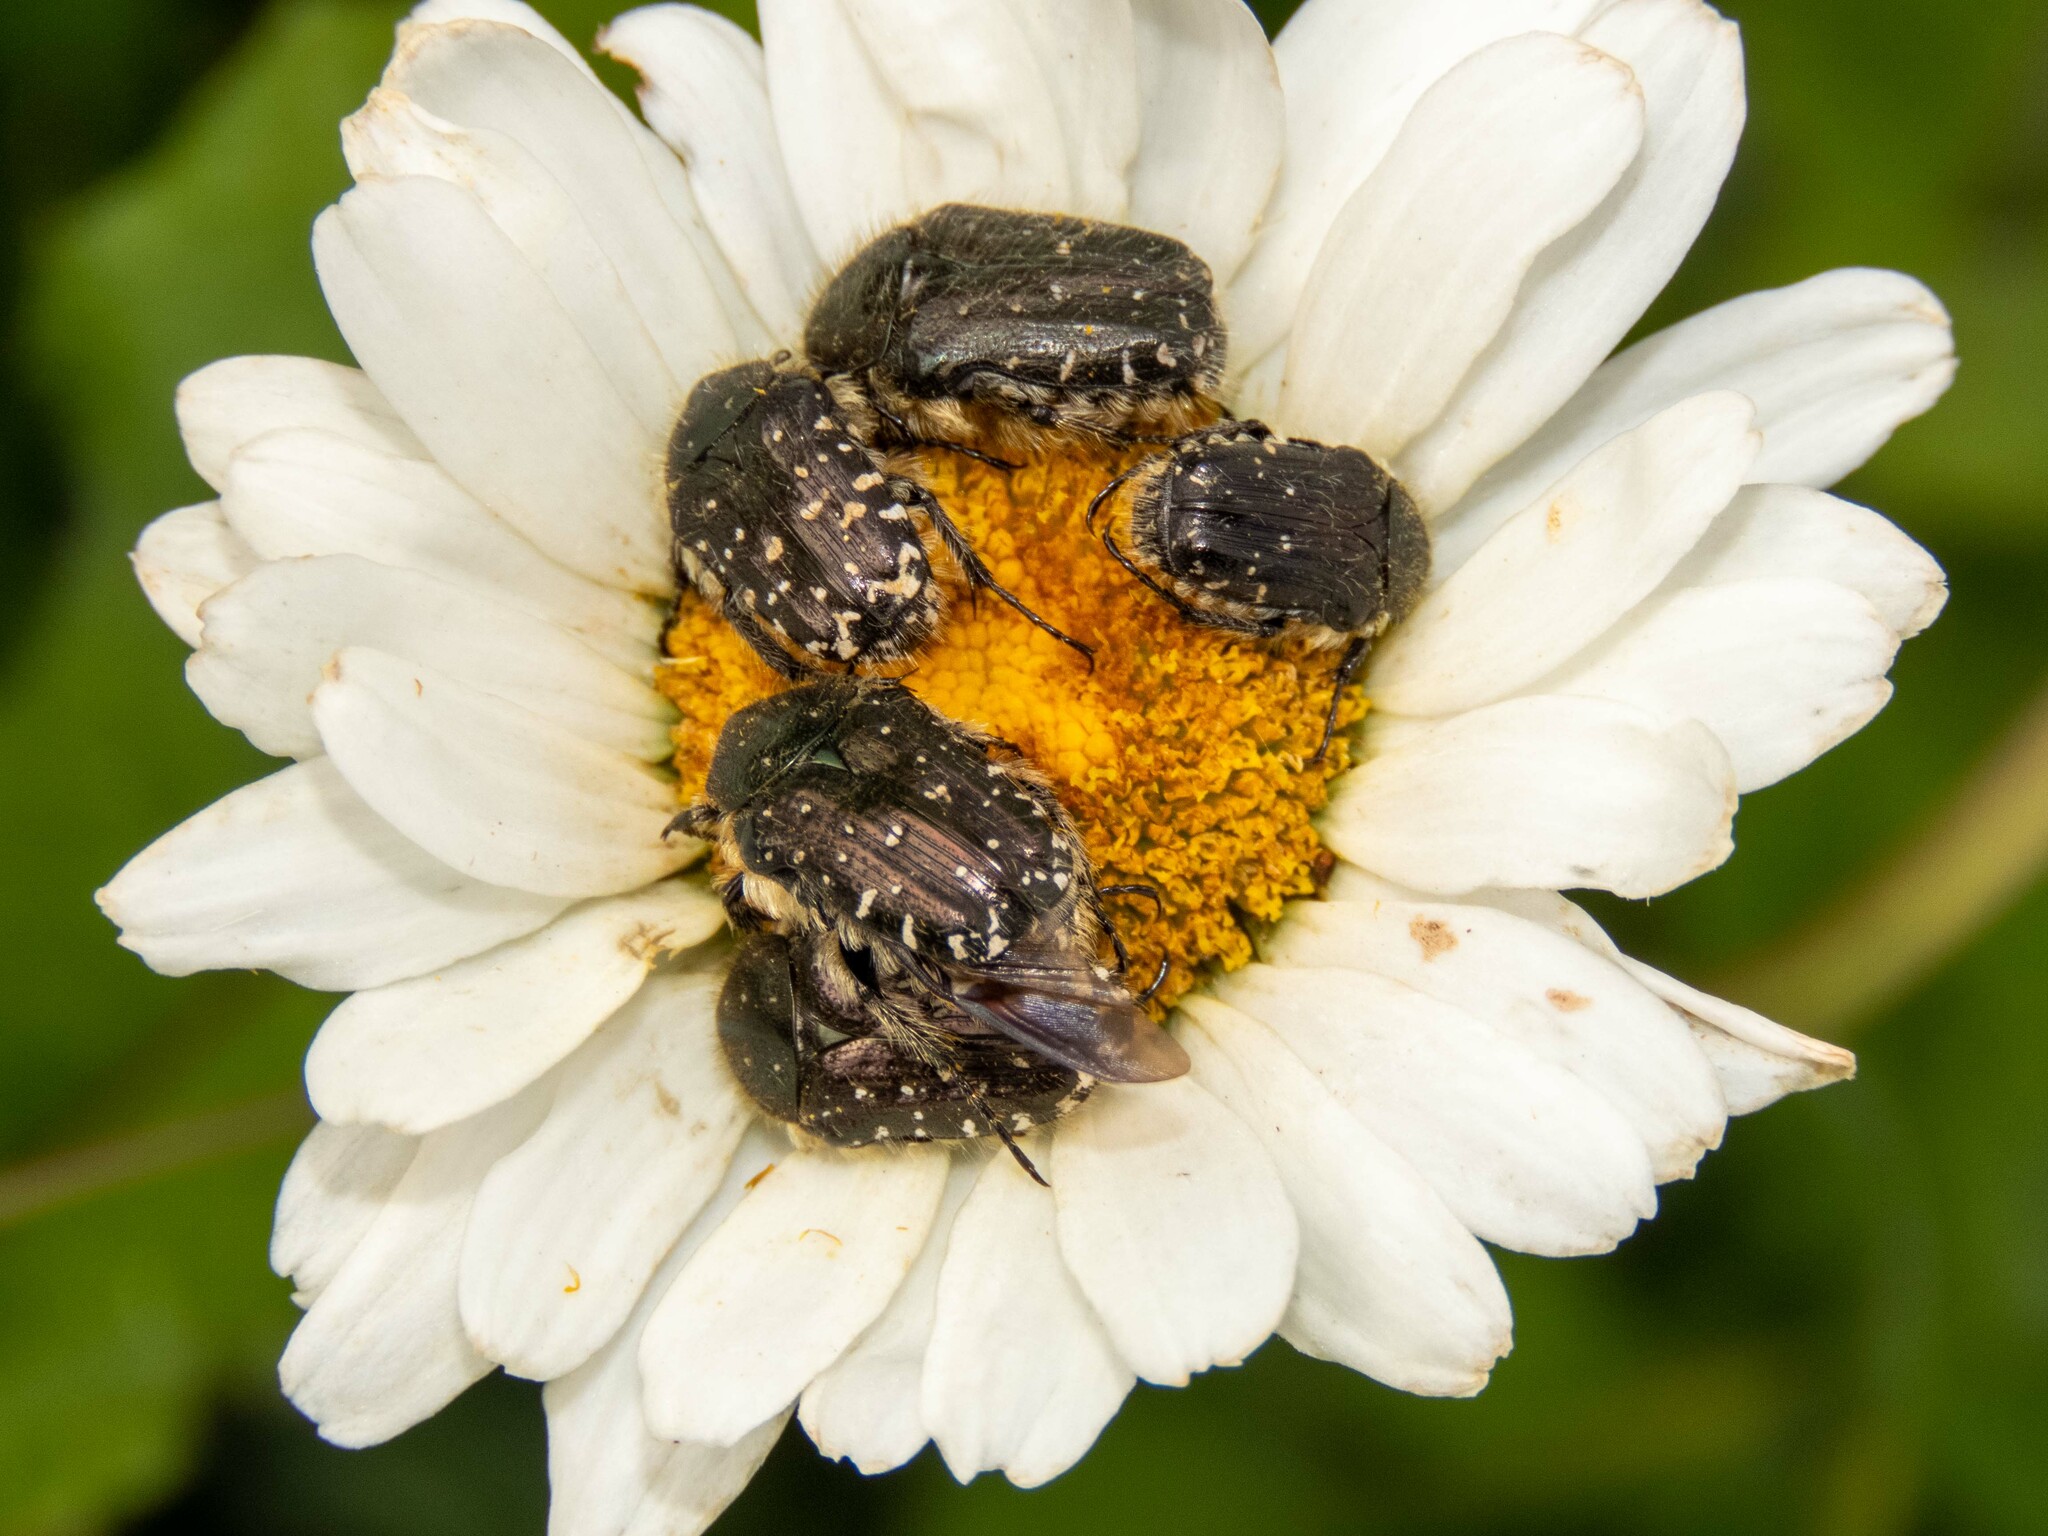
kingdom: Animalia
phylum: Arthropoda
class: Insecta
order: Coleoptera
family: Scarabaeidae
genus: Oxythyrea
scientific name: Oxythyrea funesta
